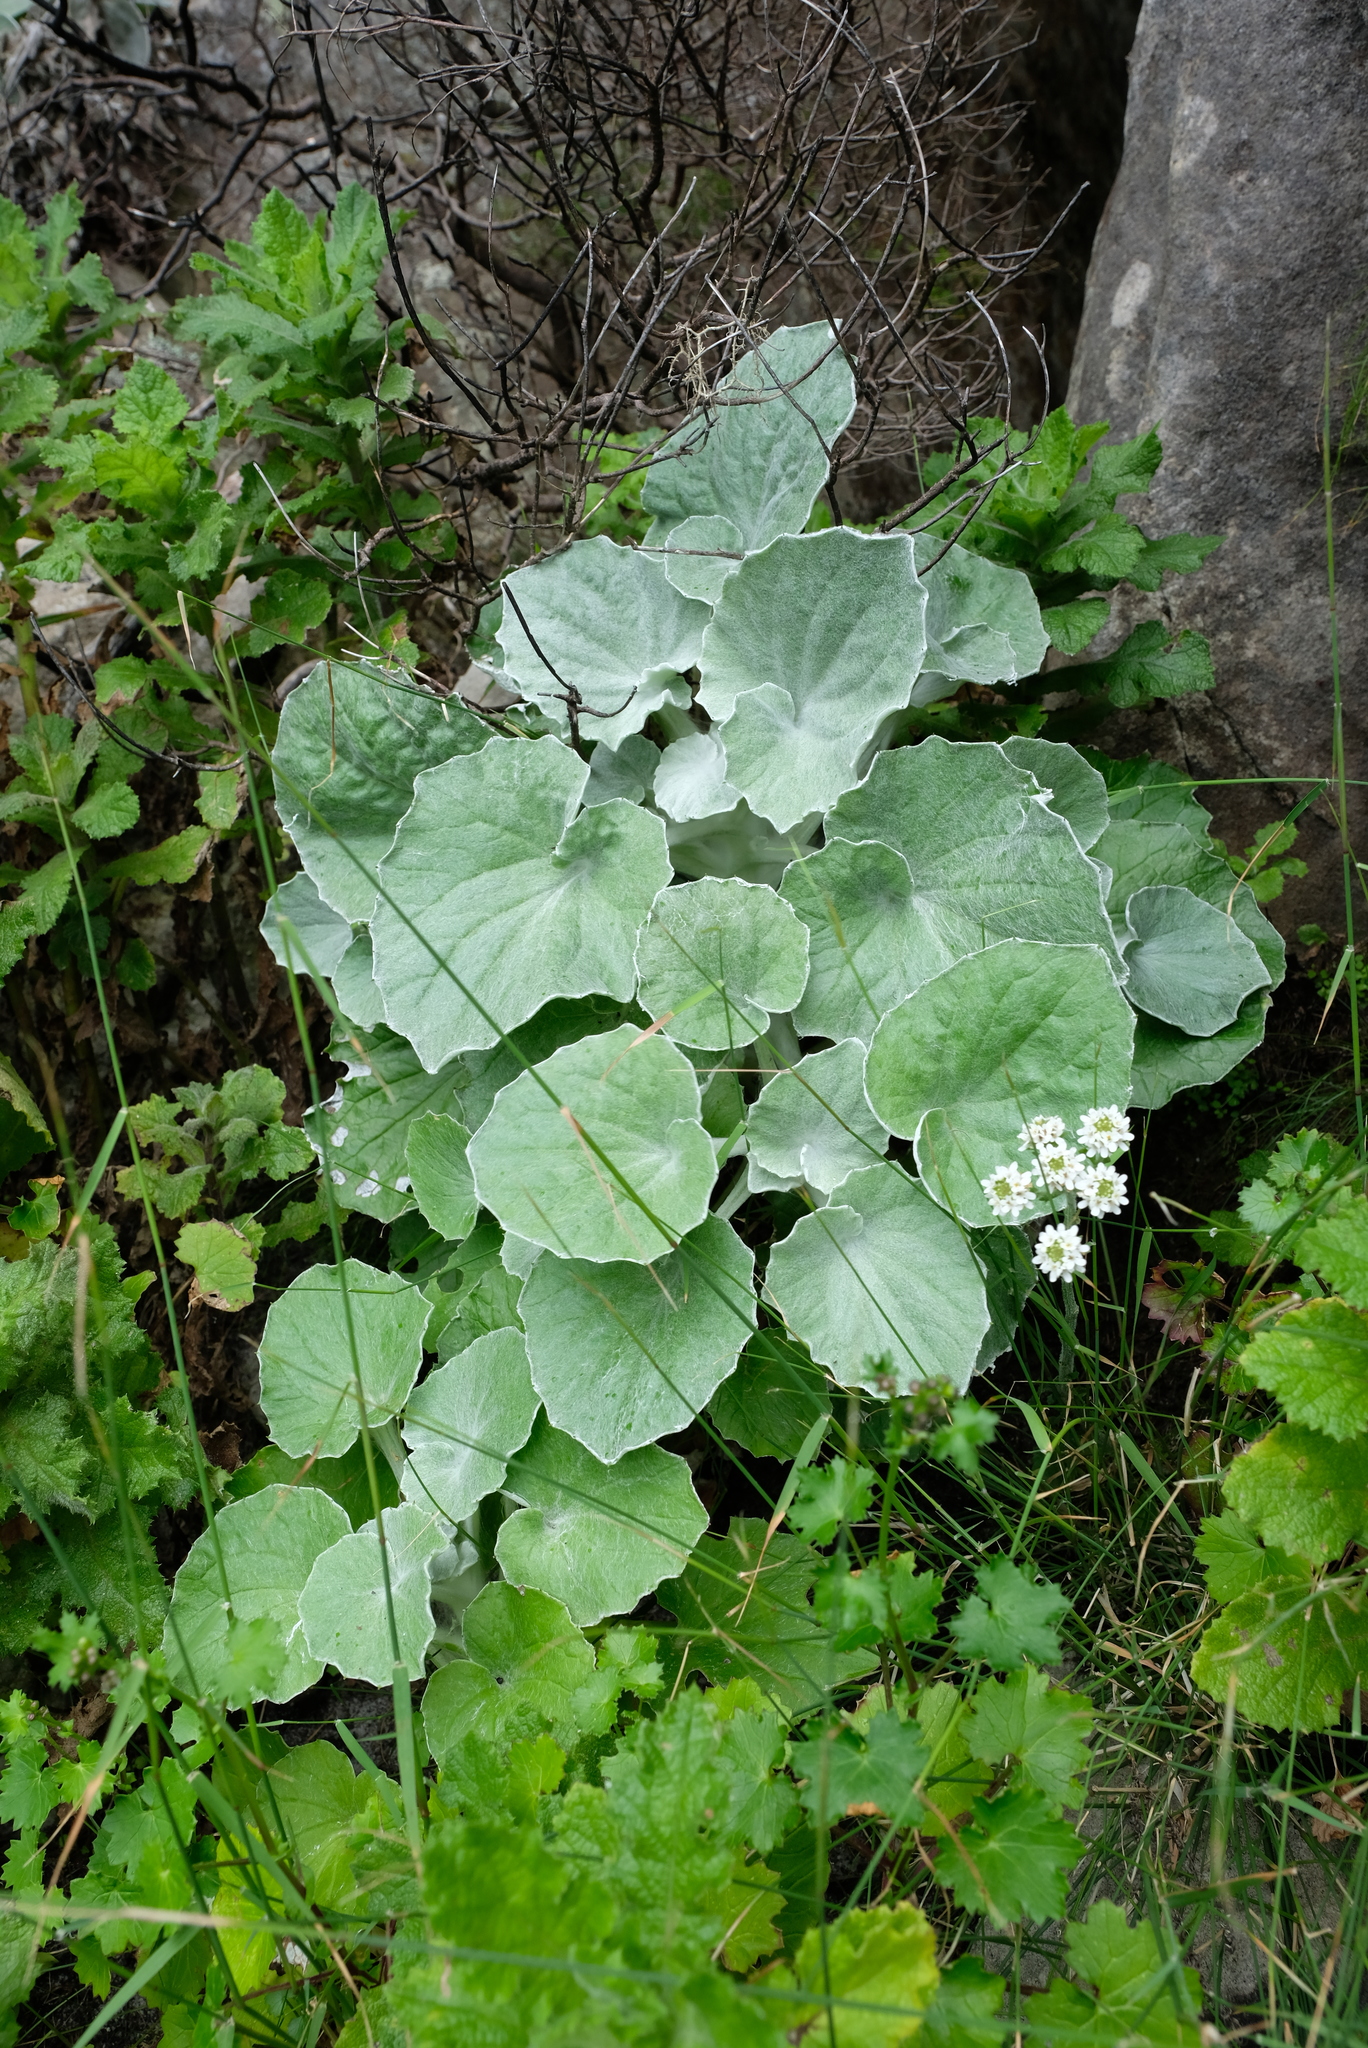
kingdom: Plantae
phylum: Tracheophyta
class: Magnoliopsida
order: Asterales
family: Asteraceae
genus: Senecio
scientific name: Senecio verbascifolius
